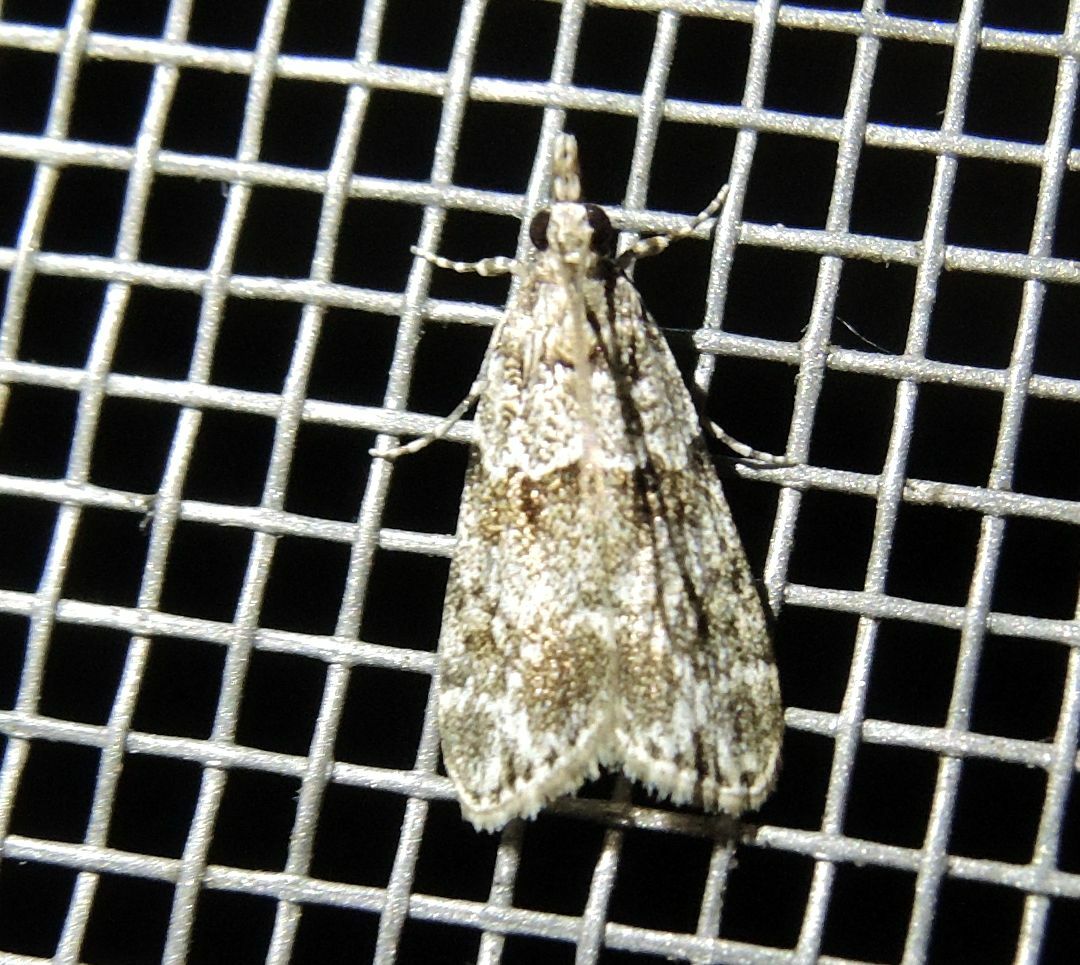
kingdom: Animalia
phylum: Arthropoda
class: Insecta
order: Lepidoptera
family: Crambidae
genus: Eudonia
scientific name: Eudonia mercurella
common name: Small grey
